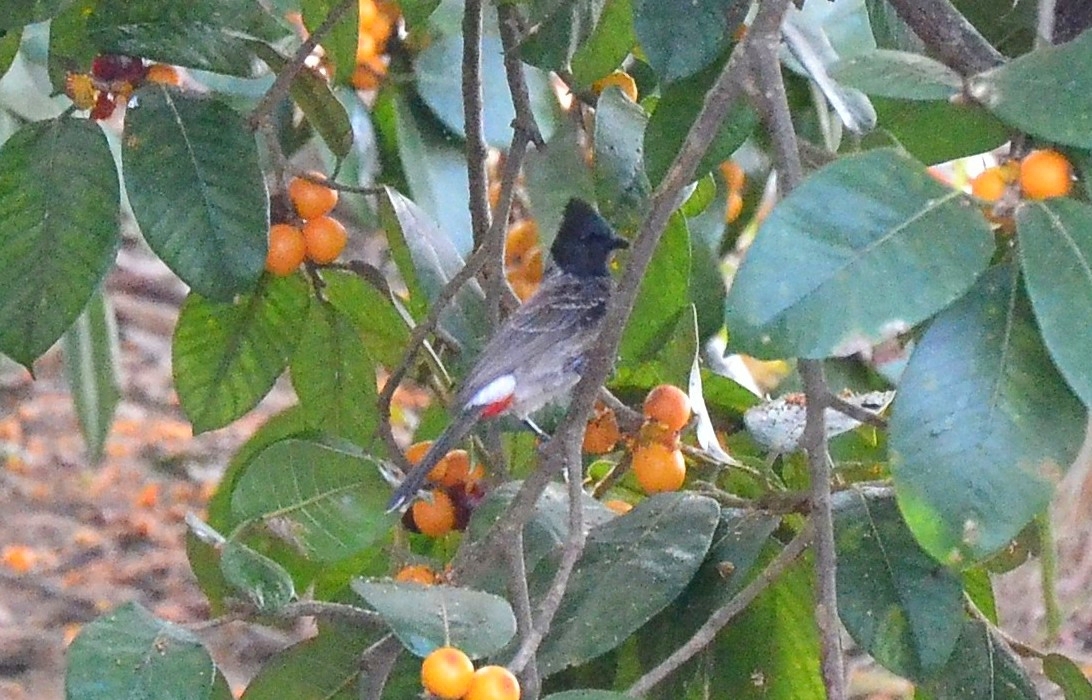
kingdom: Animalia
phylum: Chordata
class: Aves
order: Passeriformes
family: Pycnonotidae
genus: Pycnonotus
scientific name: Pycnonotus cafer
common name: Red-vented bulbul
